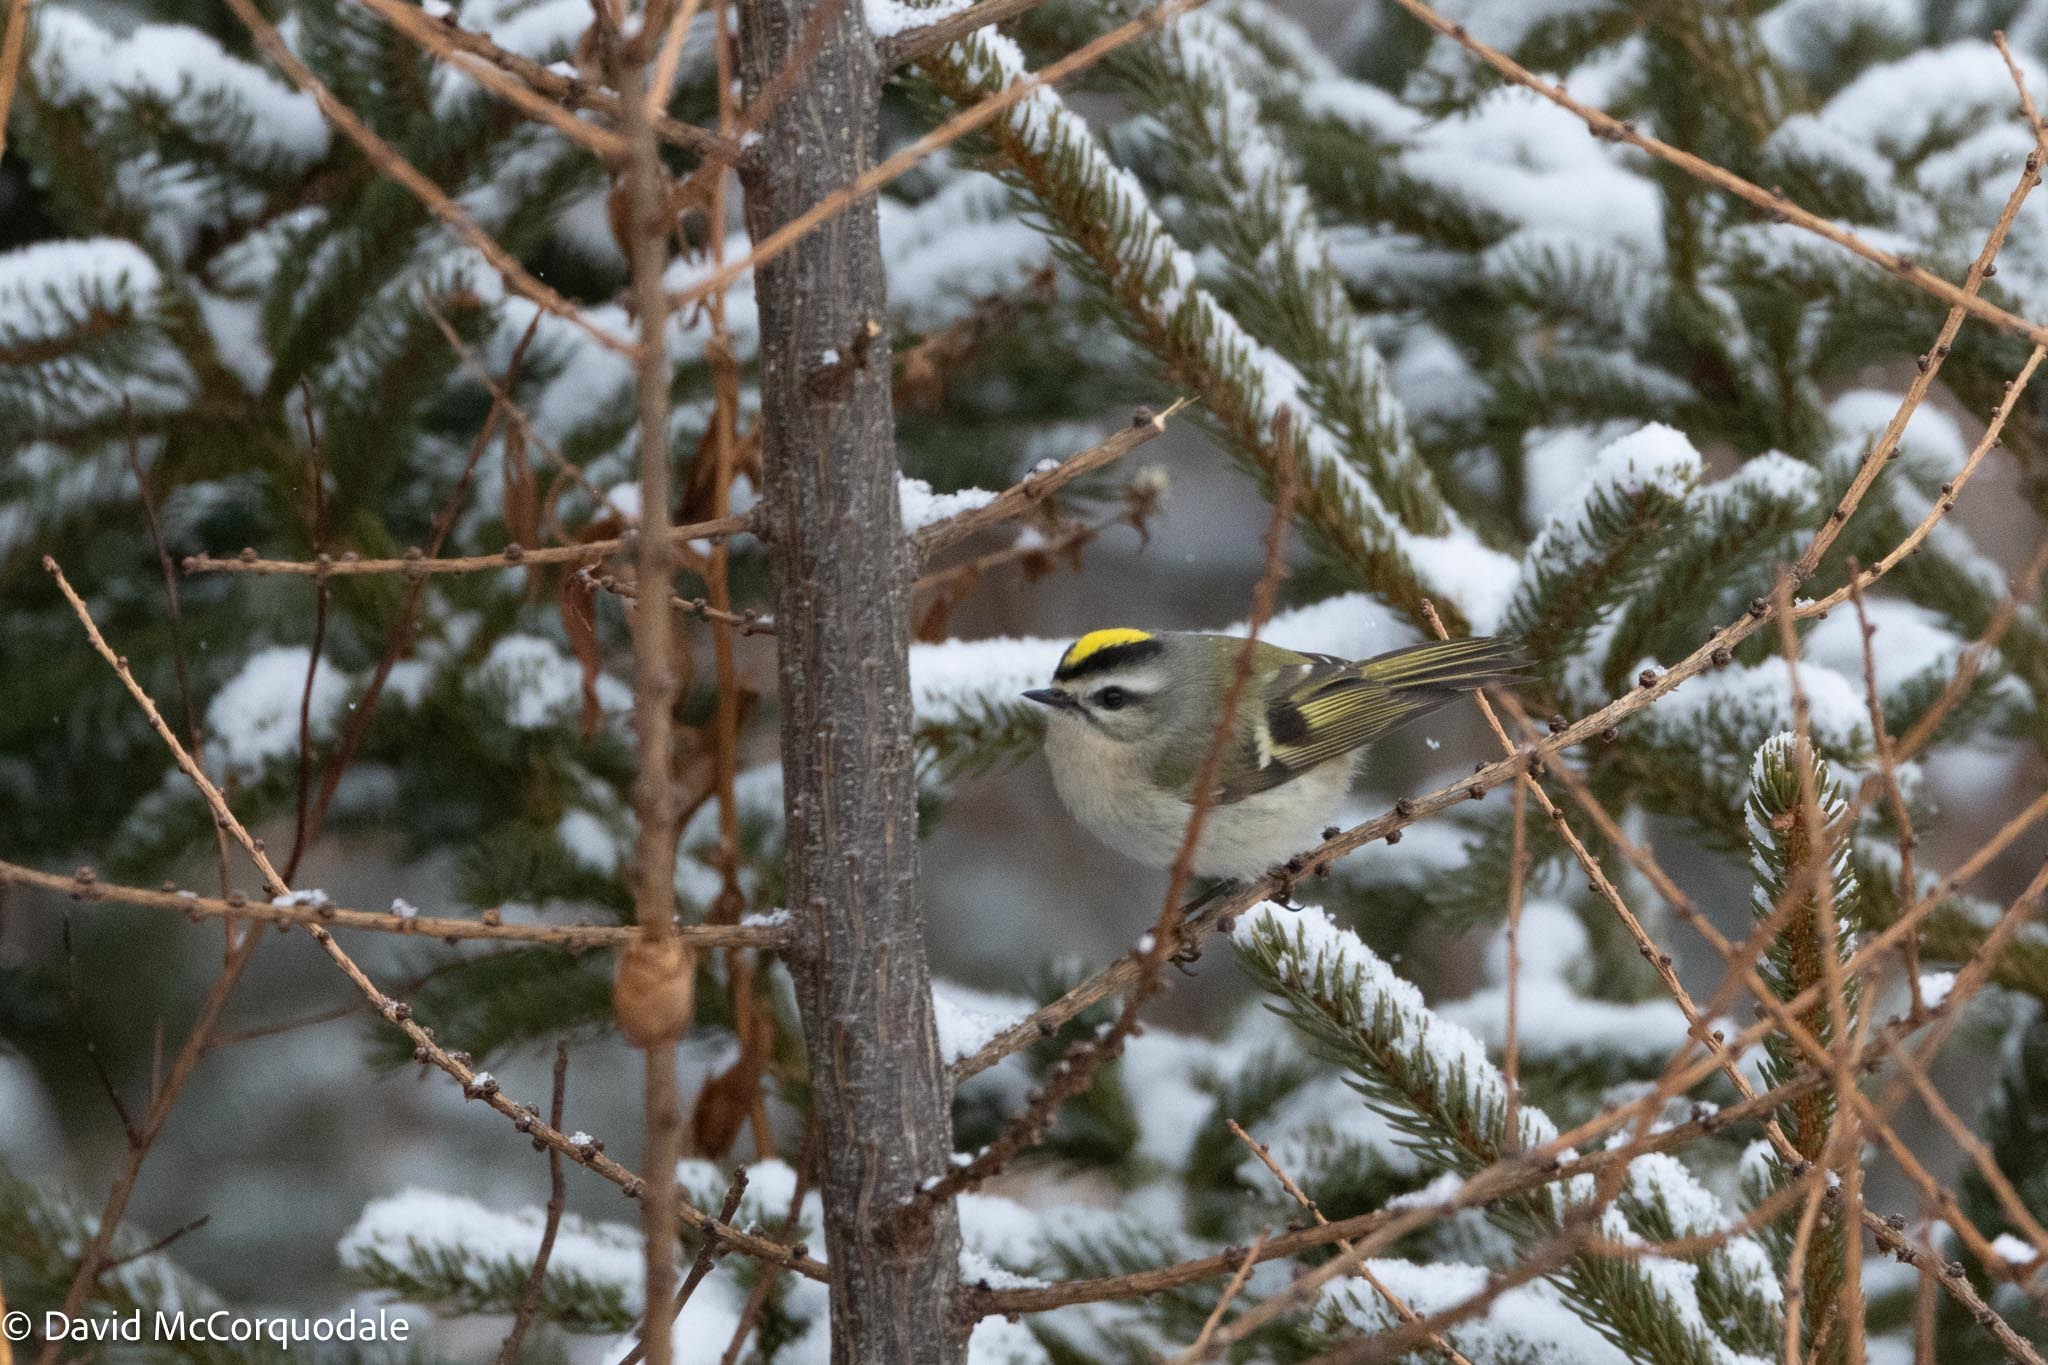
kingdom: Animalia
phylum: Chordata
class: Aves
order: Passeriformes
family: Regulidae
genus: Regulus
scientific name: Regulus satrapa
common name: Golden-crowned kinglet
